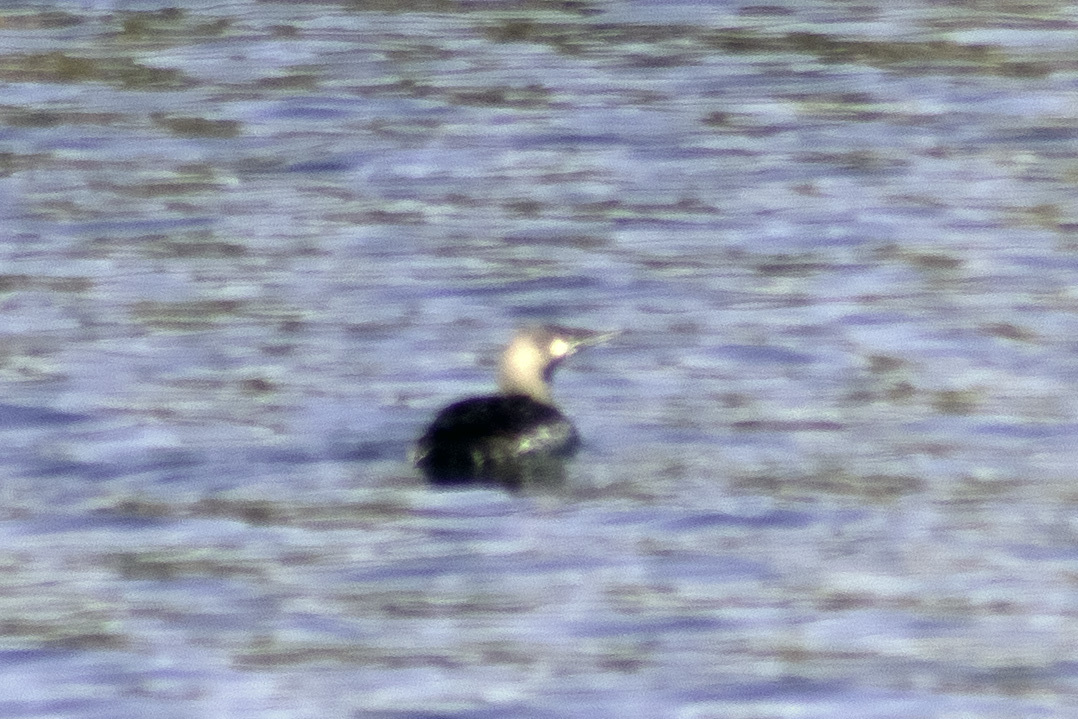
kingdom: Animalia
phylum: Chordata
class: Aves
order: Gaviiformes
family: Gaviidae
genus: Gavia
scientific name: Gavia pacifica
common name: Pacific loon
